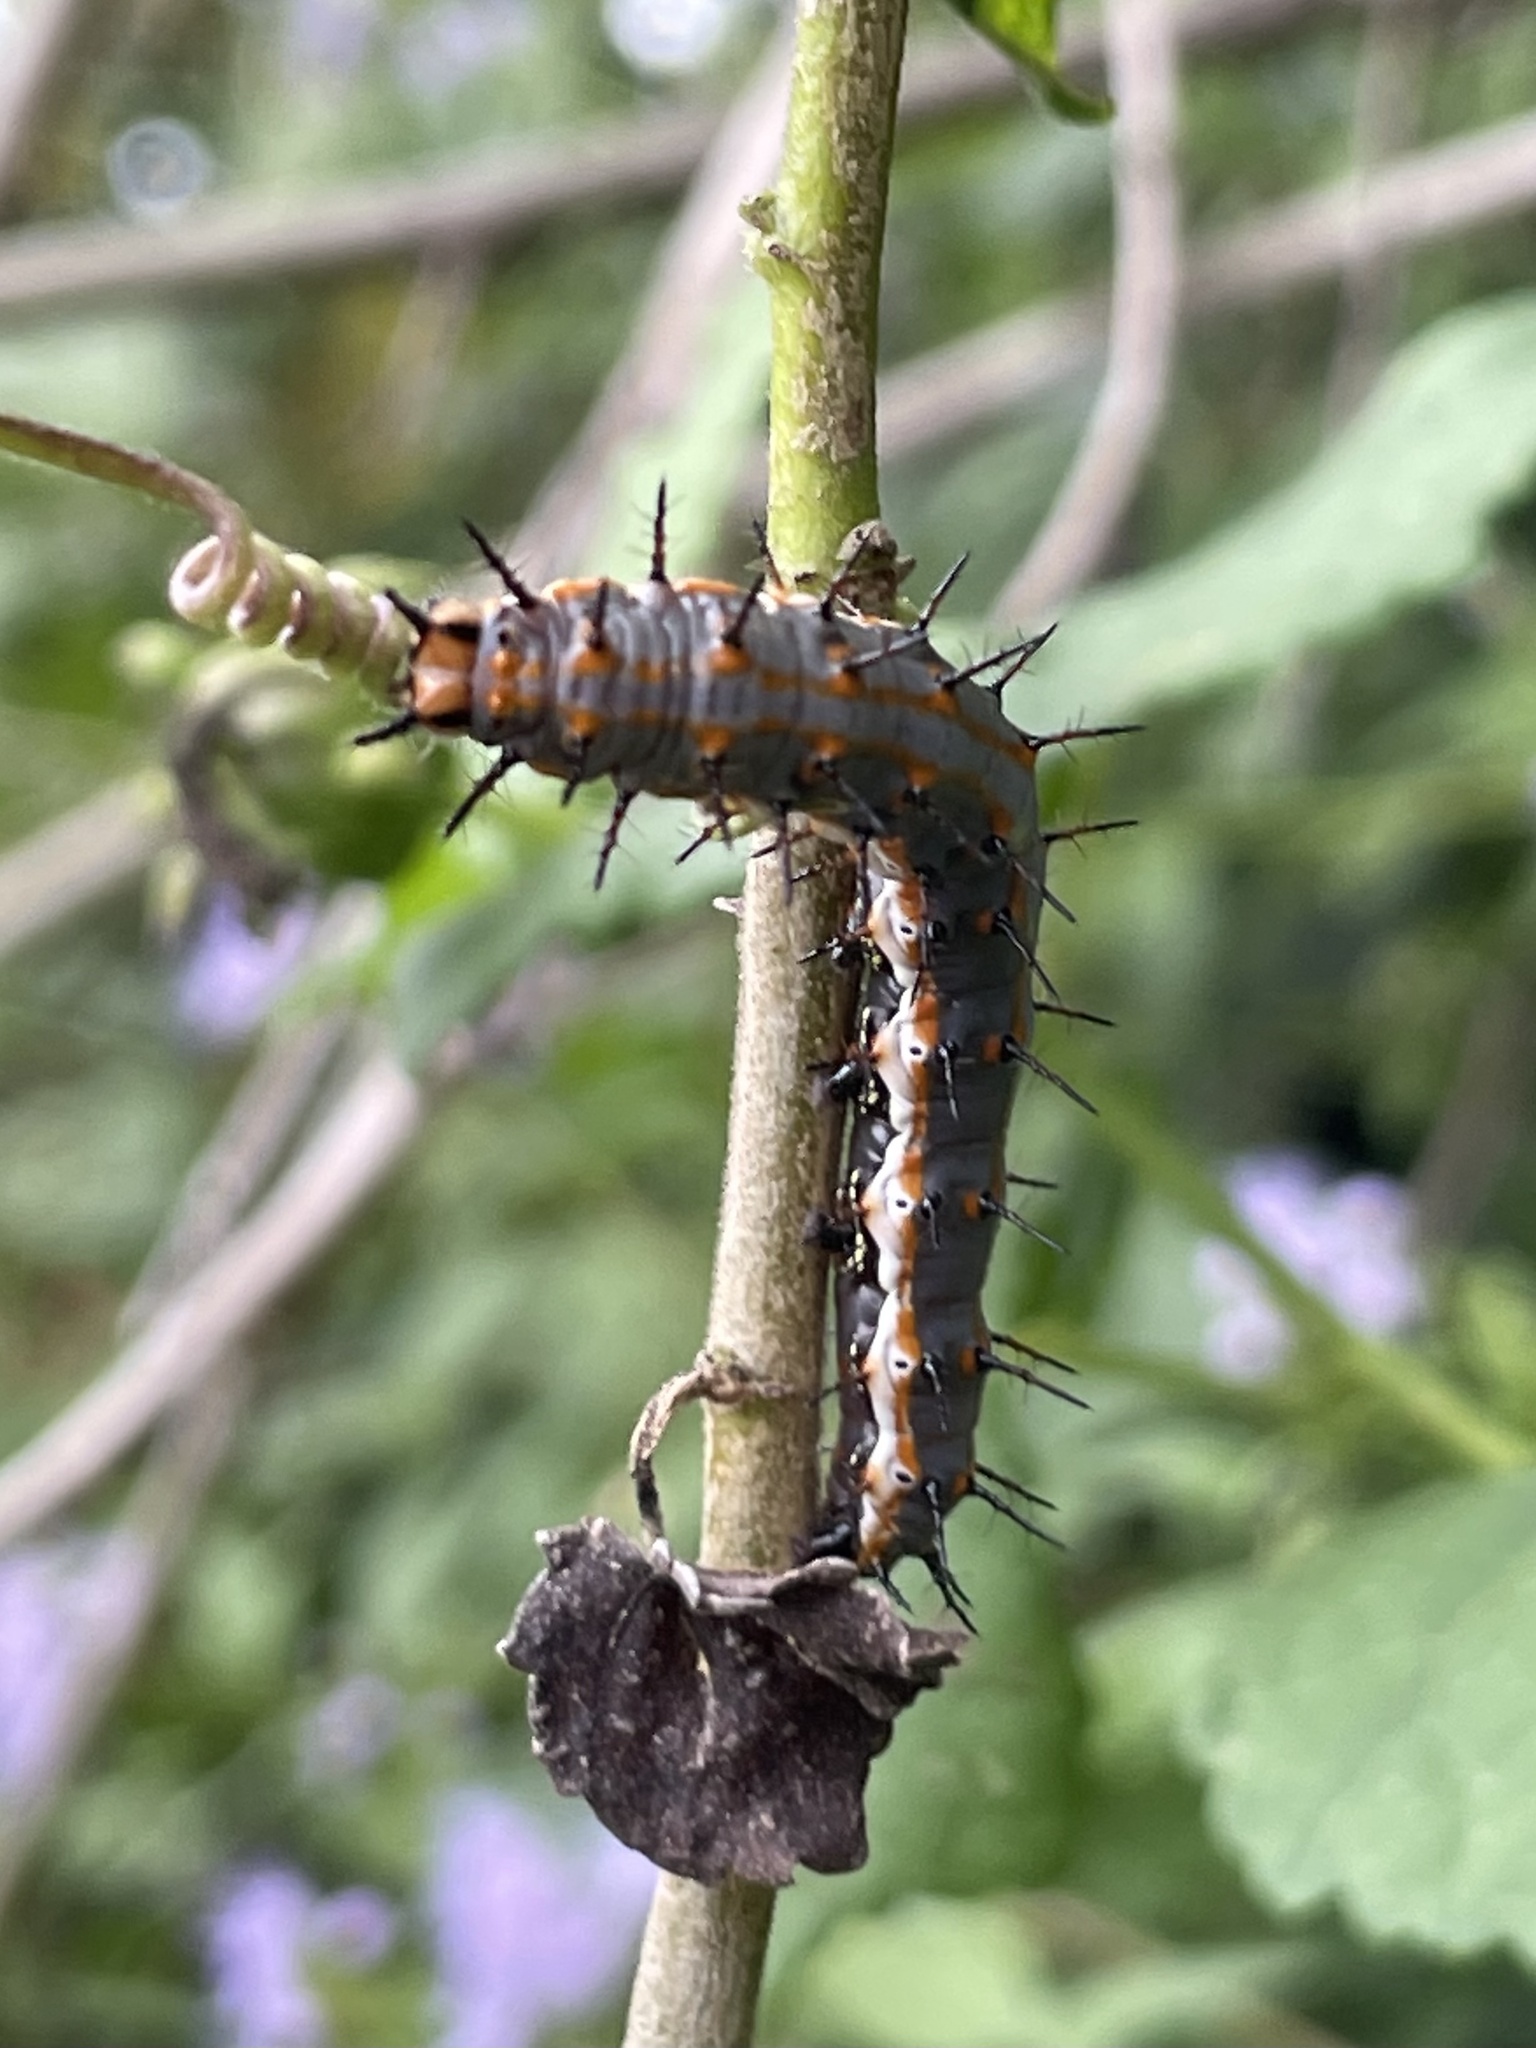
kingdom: Animalia
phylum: Arthropoda
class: Insecta
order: Lepidoptera
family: Nymphalidae
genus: Dione
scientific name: Dione vanillae
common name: Gulf fritillary
